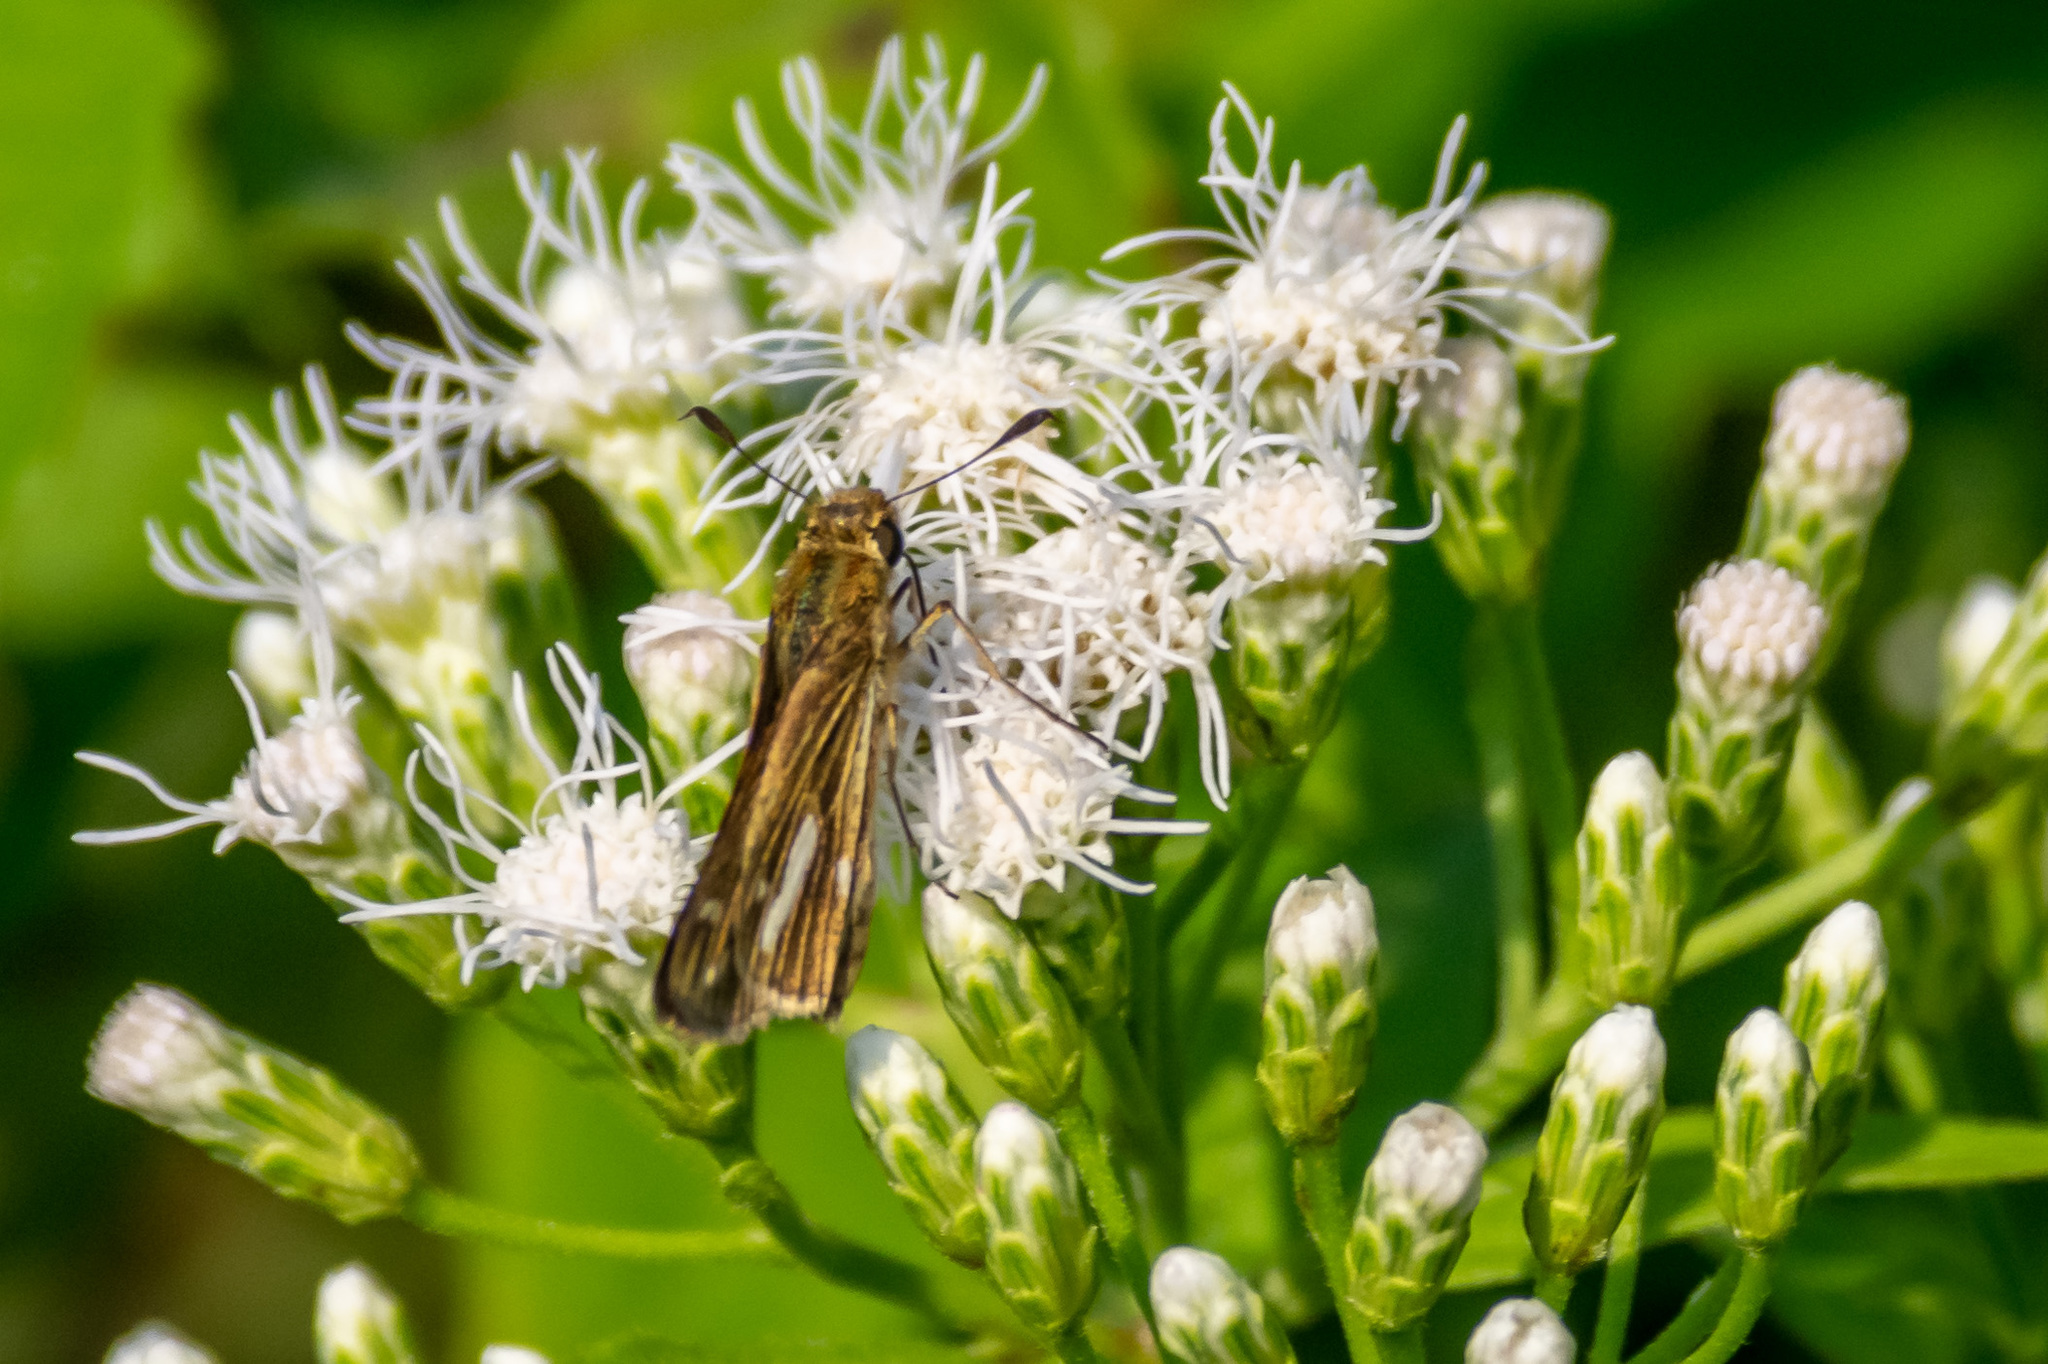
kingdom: Animalia
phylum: Arthropoda
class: Insecta
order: Lepidoptera
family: Hesperiidae
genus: Panoquina
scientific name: Panoquina panoquin
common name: Salt marsh skipper
